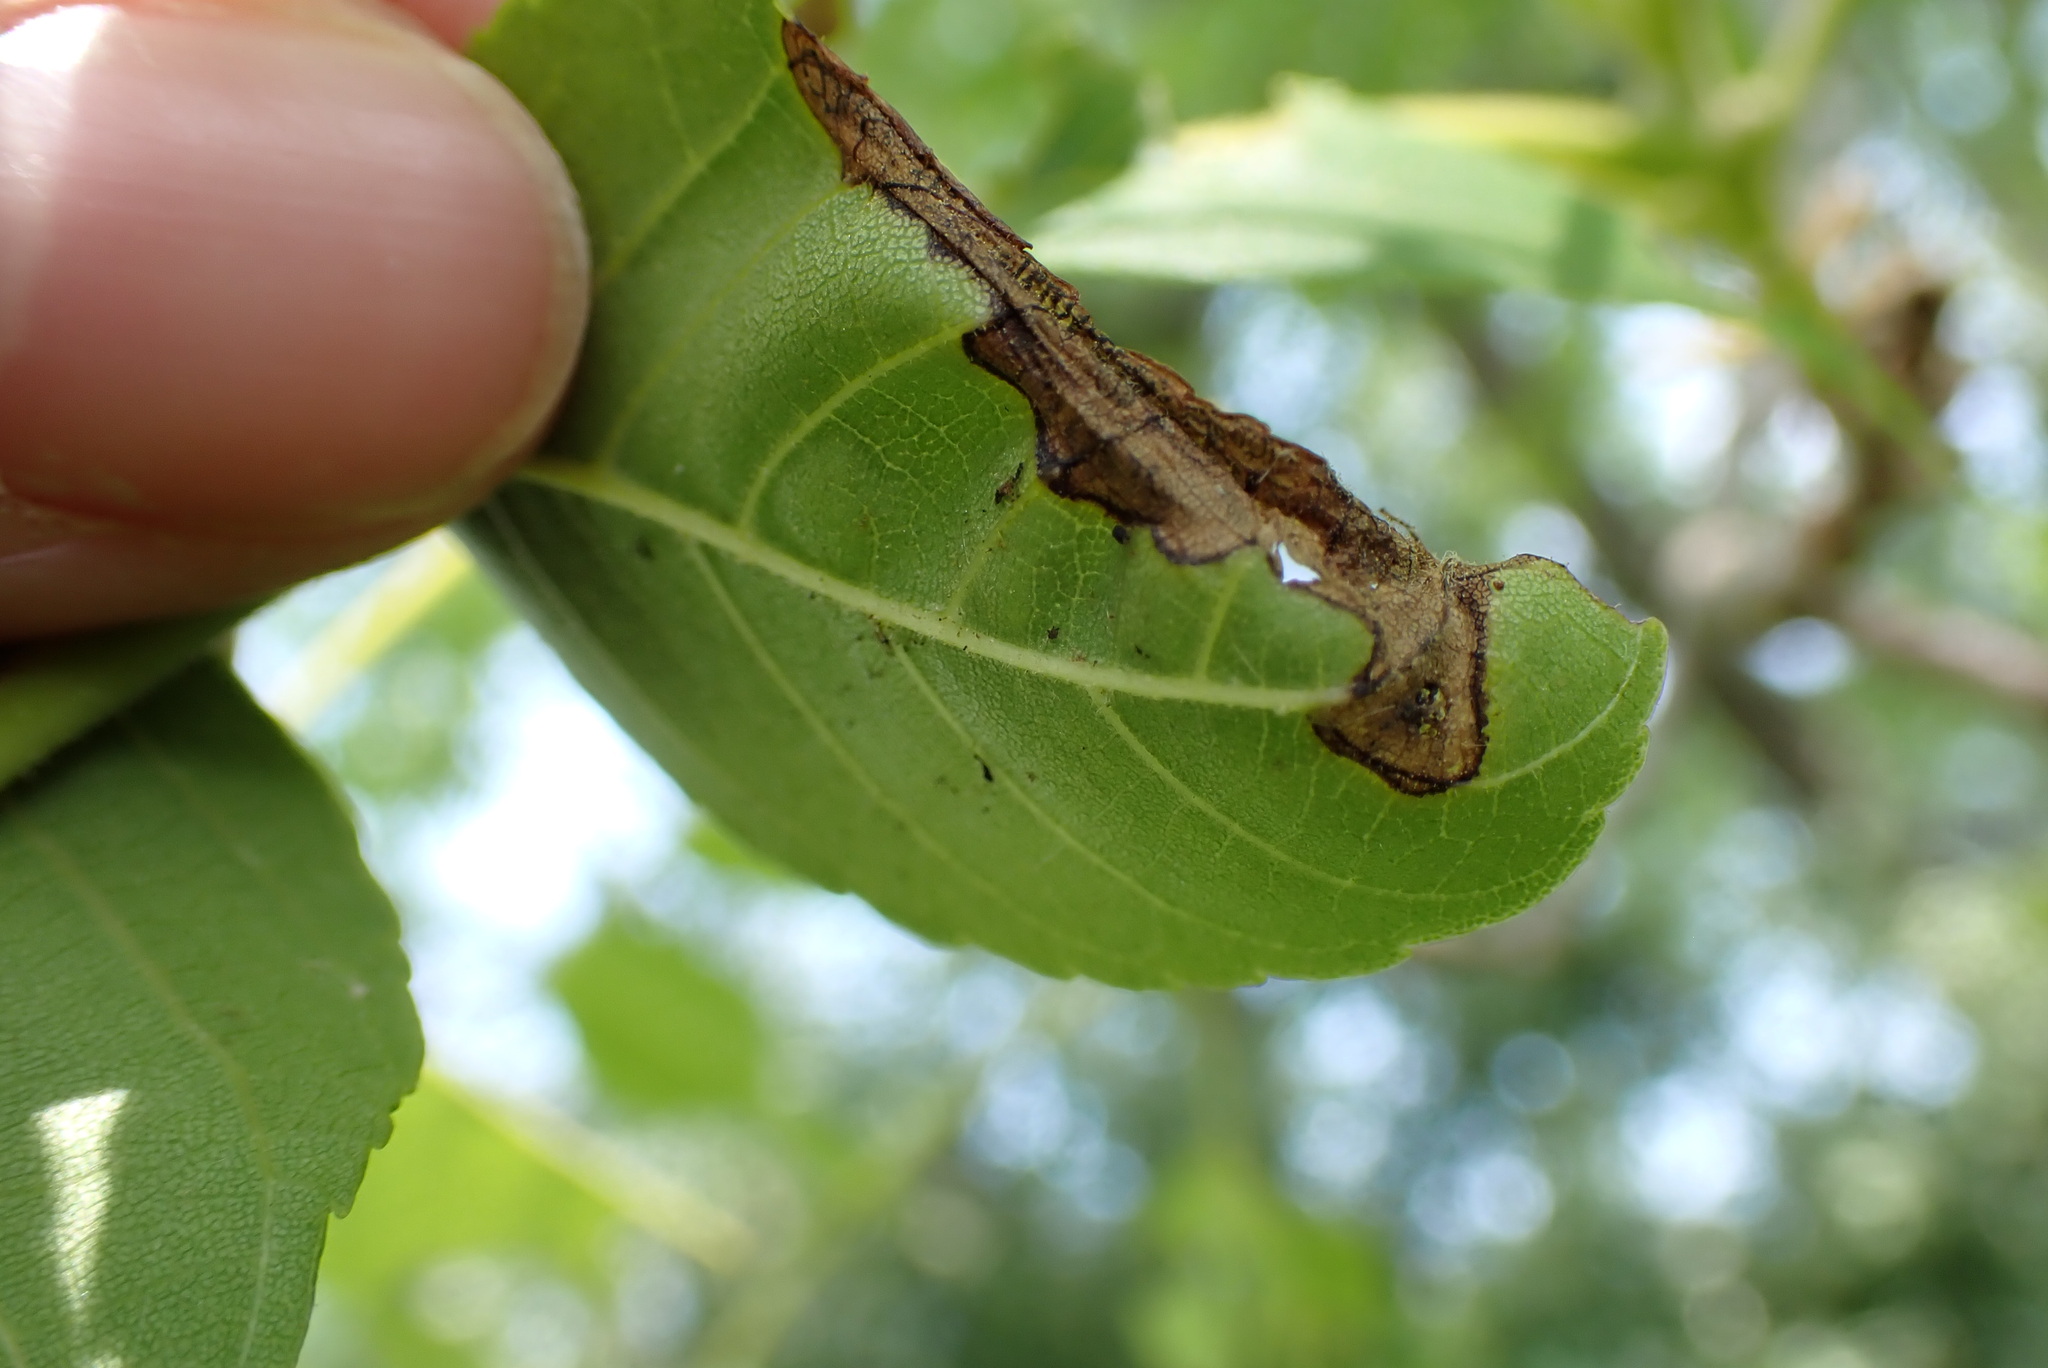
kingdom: Animalia
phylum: Arthropoda
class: Insecta
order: Diptera
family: Agromyzidae
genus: Japanagromyza
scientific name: Japanagromyza viridula
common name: Oak shothole leafminer
